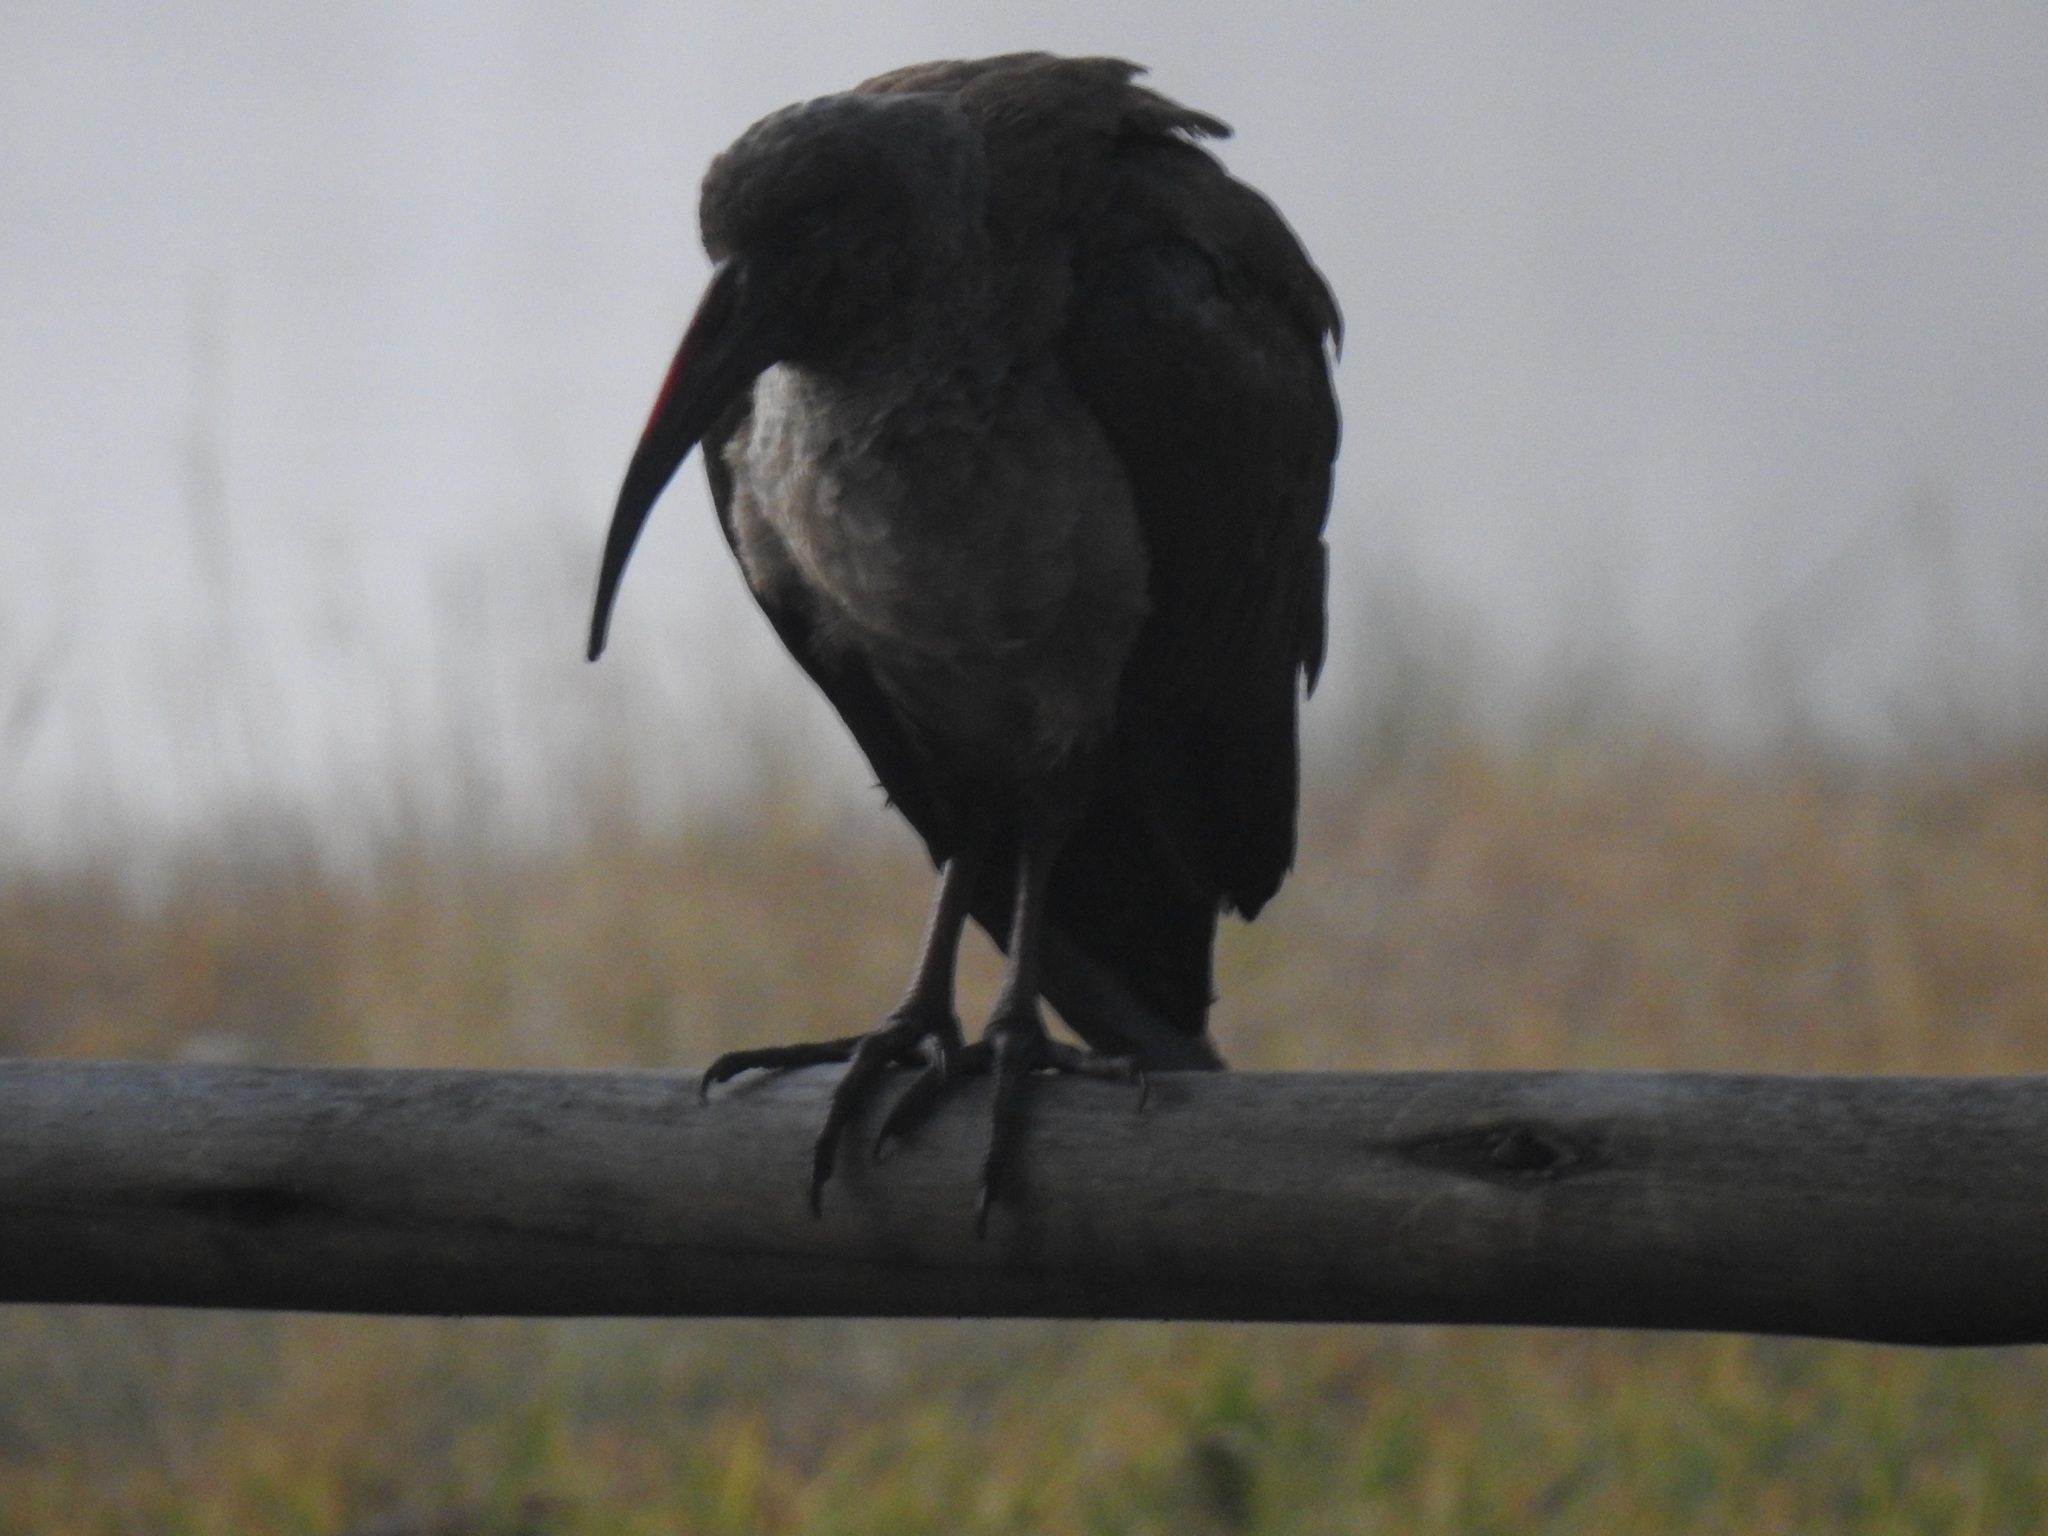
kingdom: Animalia
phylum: Chordata
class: Aves
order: Pelecaniformes
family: Threskiornithidae
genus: Bostrychia
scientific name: Bostrychia hagedash
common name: Hadada ibis
